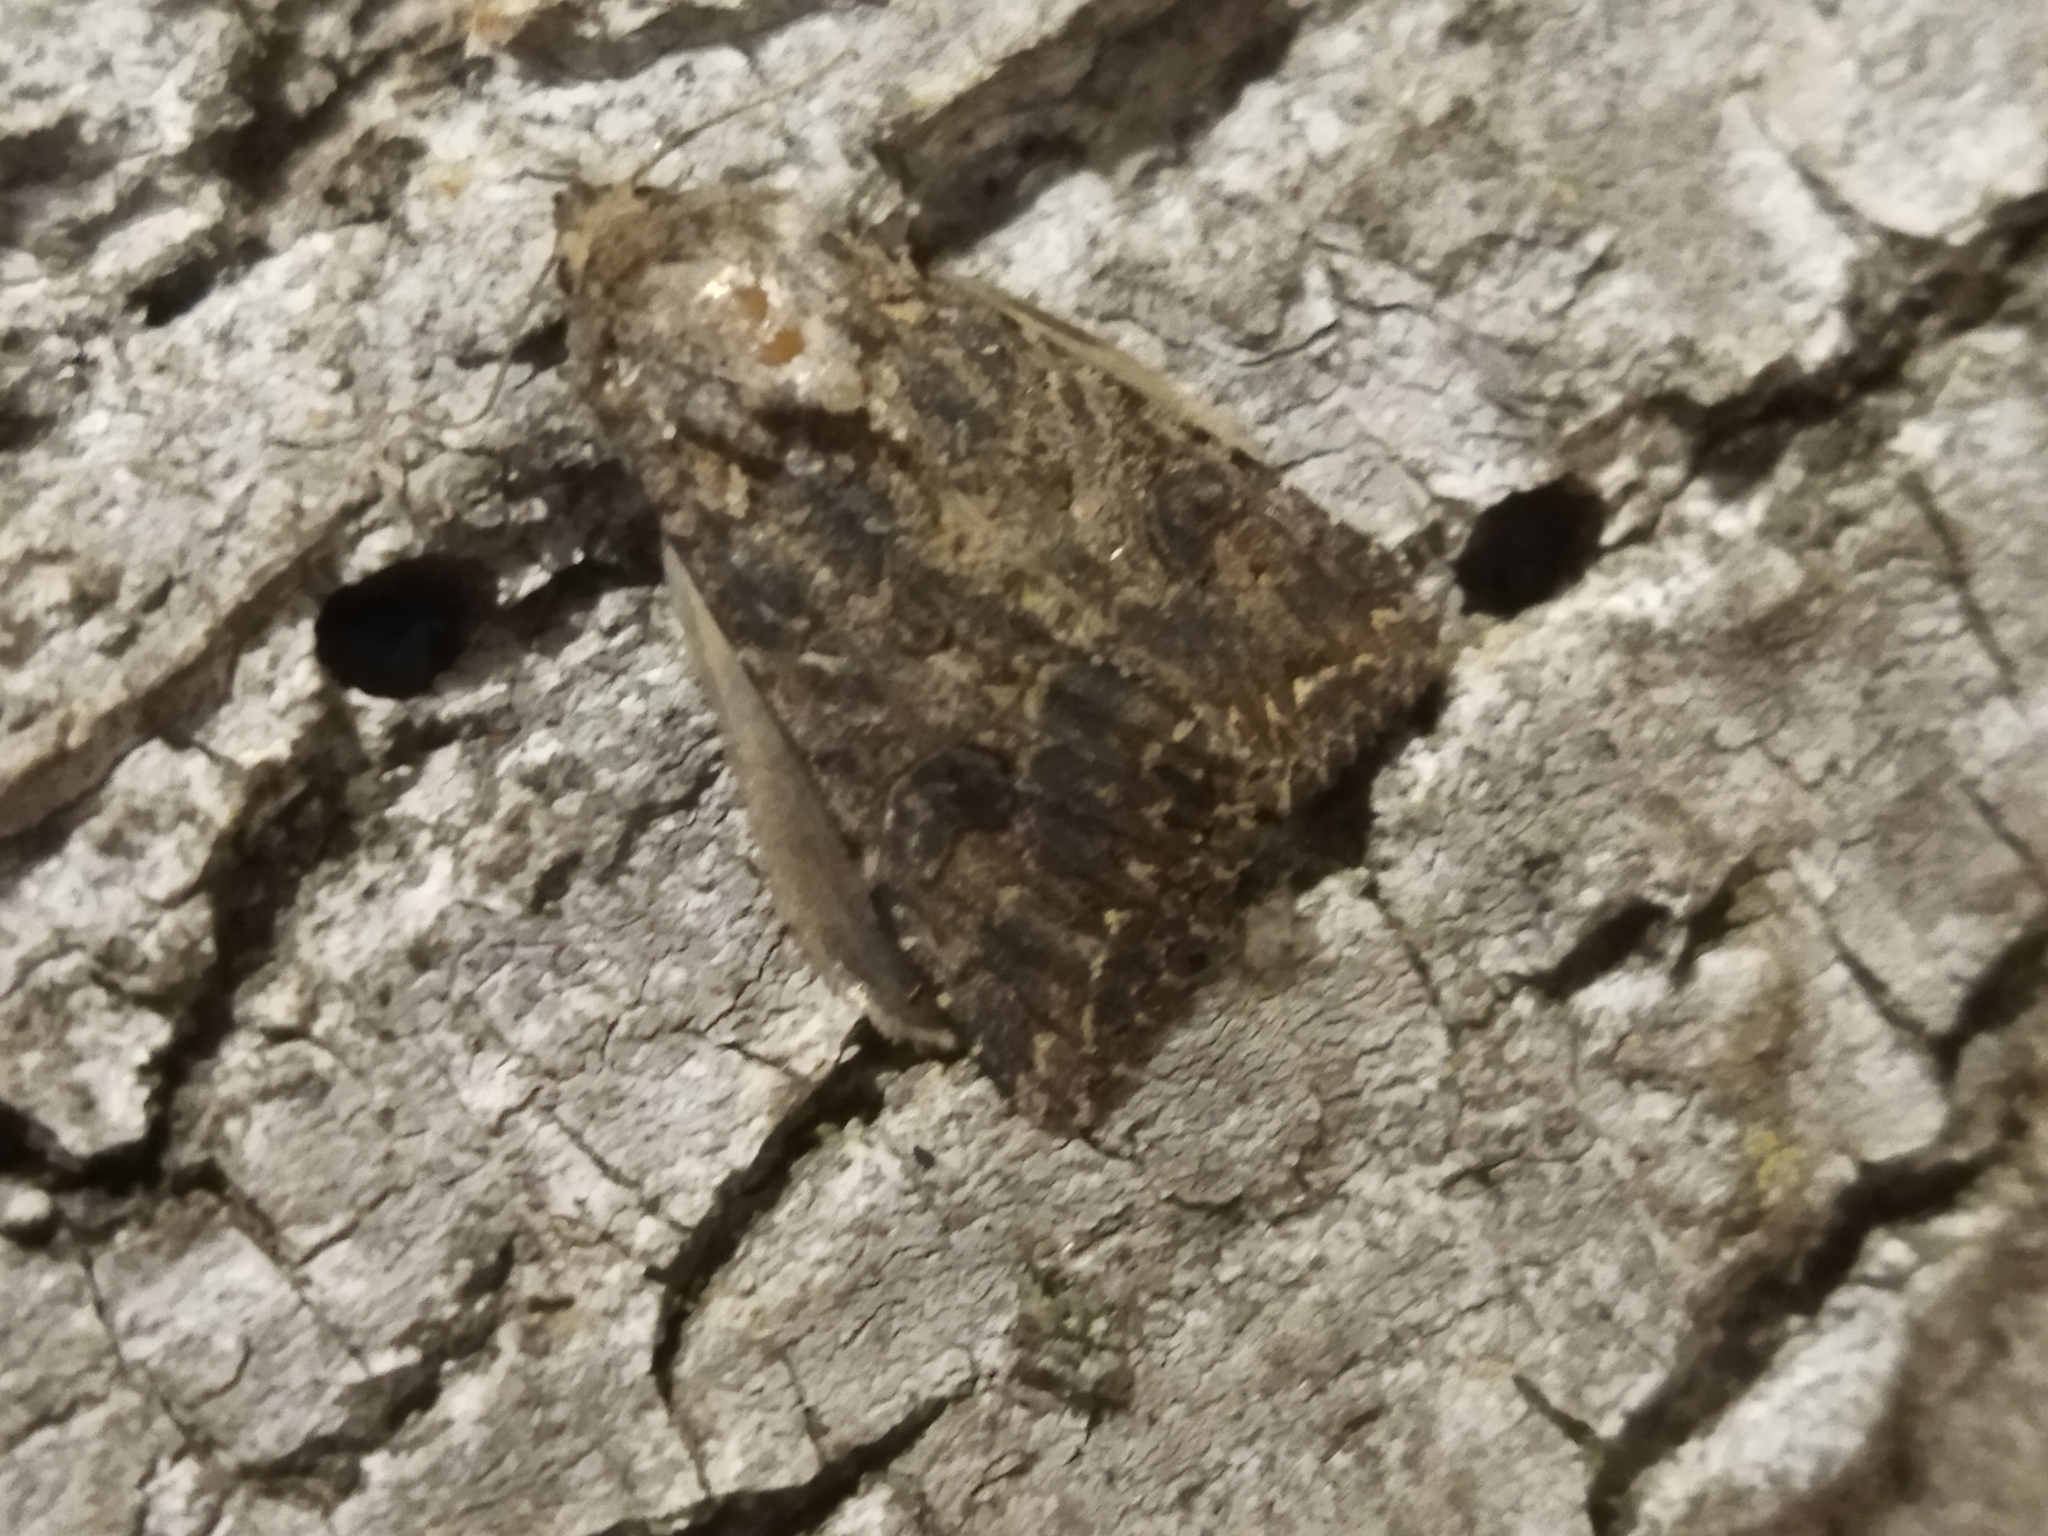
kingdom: Animalia
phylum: Arthropoda
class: Insecta
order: Lepidoptera
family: Noctuidae
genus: Anarta
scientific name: Anarta trifolii
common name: Clover cutworm moth
